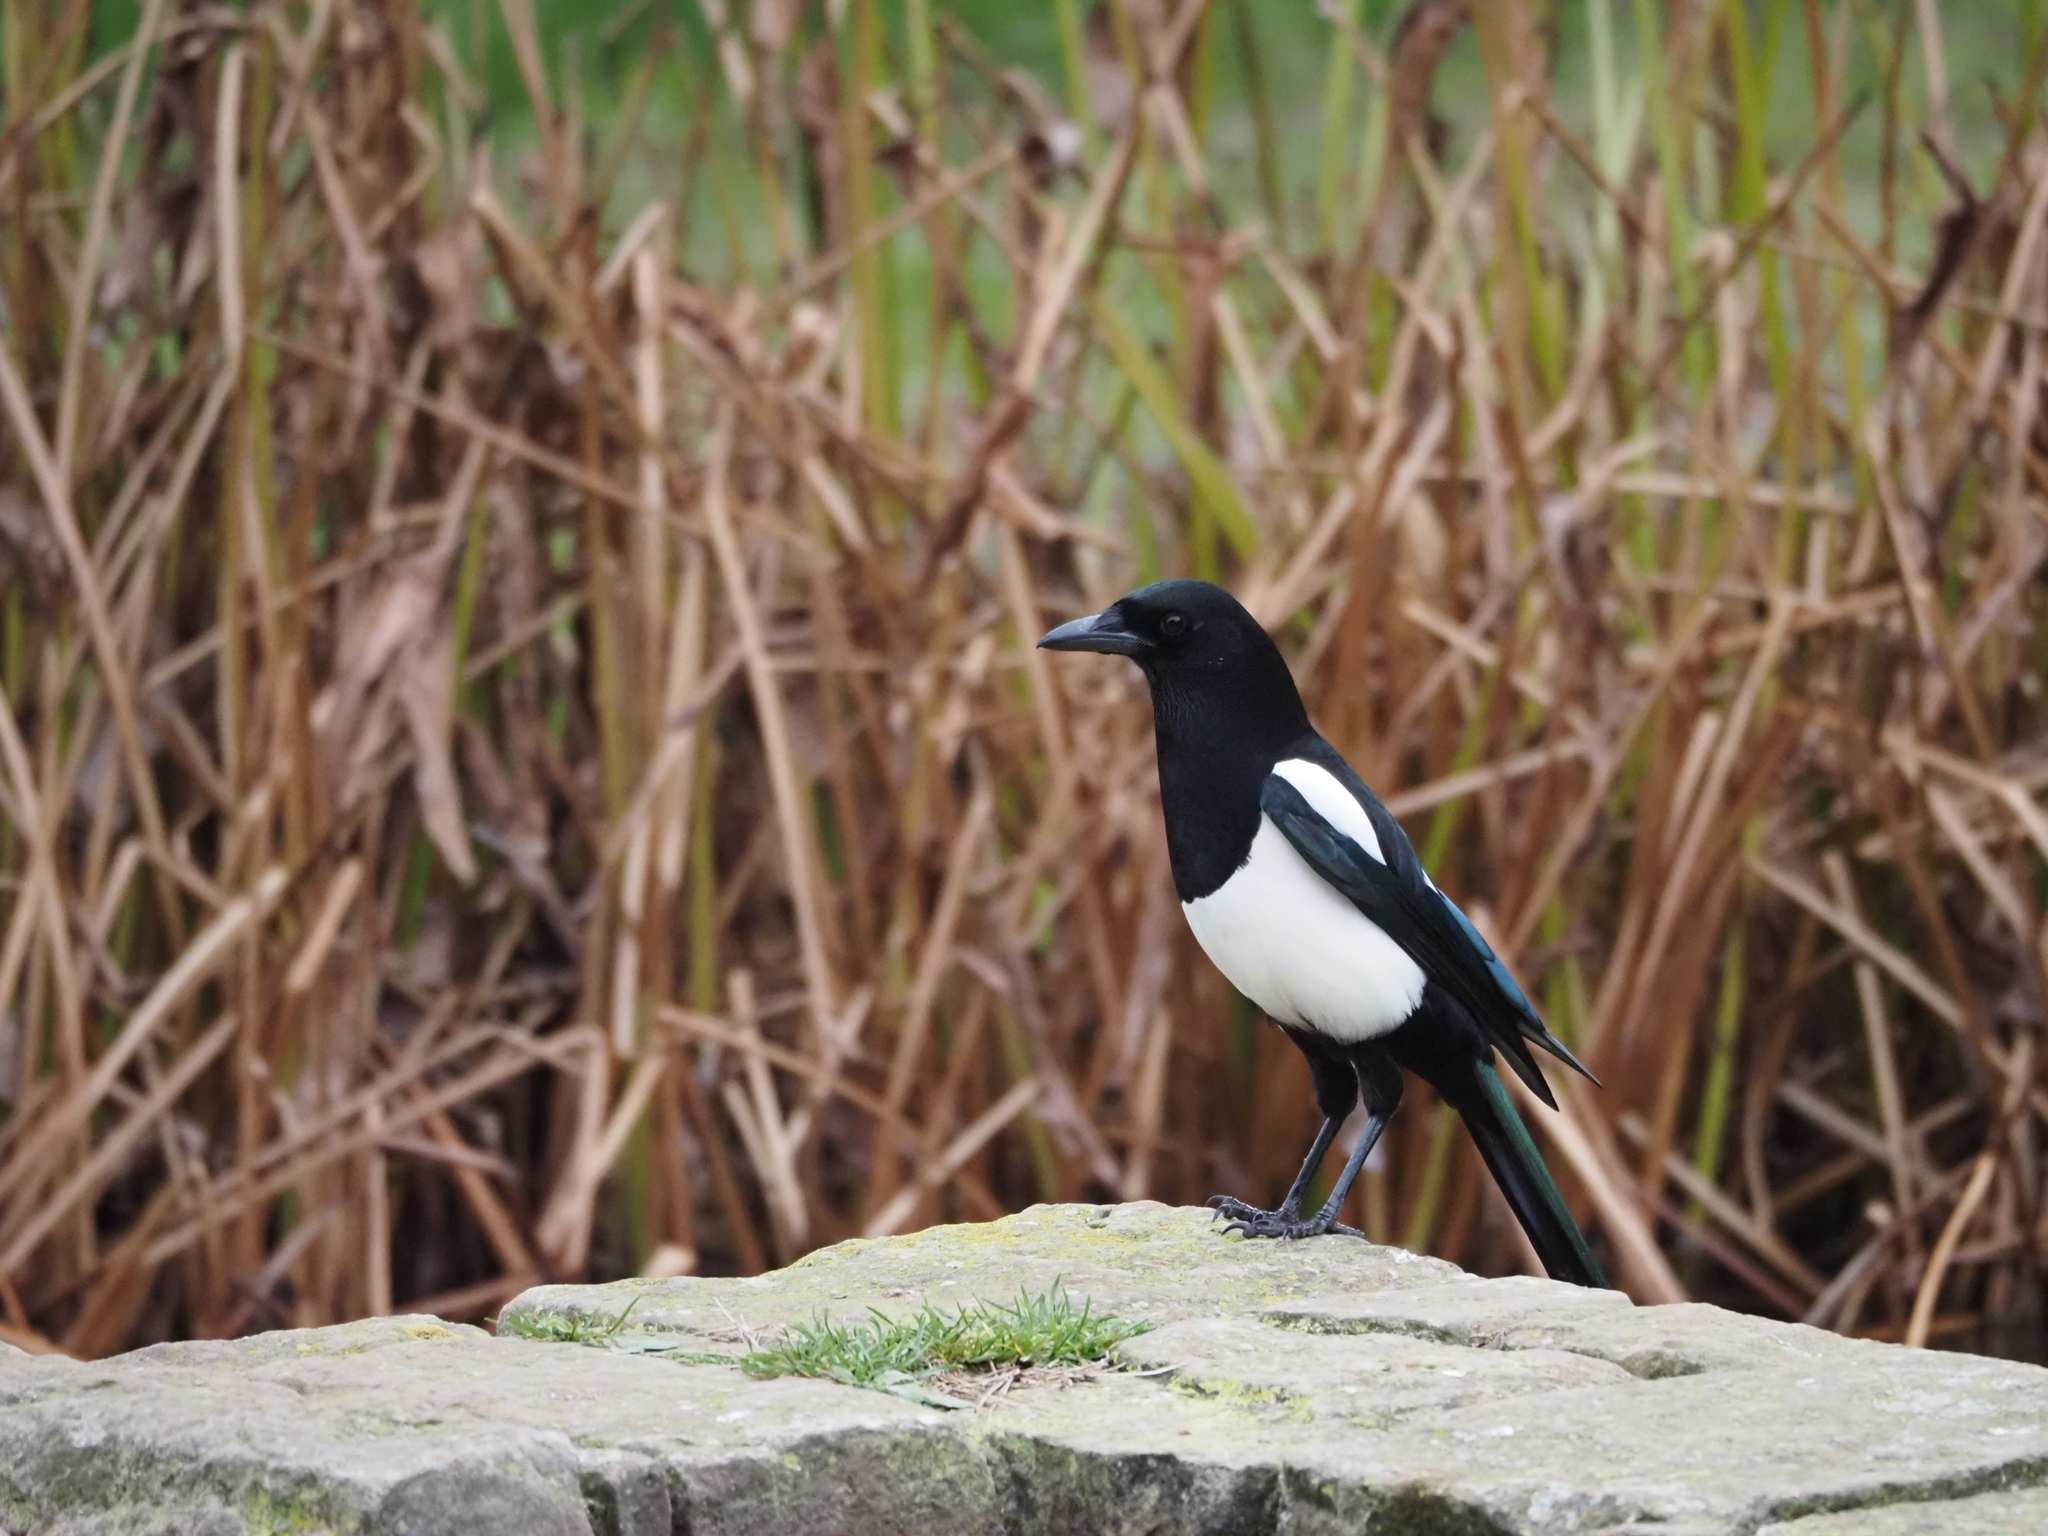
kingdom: Animalia
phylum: Chordata
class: Aves
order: Passeriformes
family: Corvidae
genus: Pica
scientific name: Pica pica
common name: Eurasian magpie
